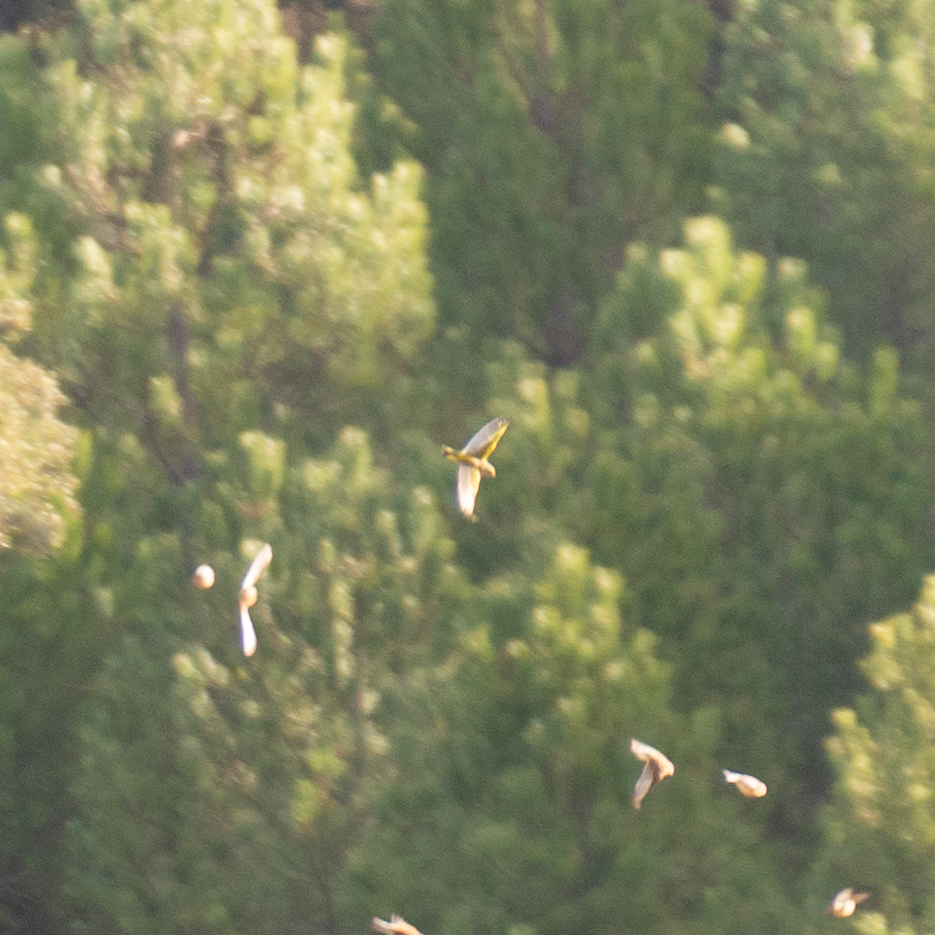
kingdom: Plantae
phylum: Tracheophyta
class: Liliopsida
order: Poales
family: Poaceae
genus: Chloris
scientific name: Chloris chloris
